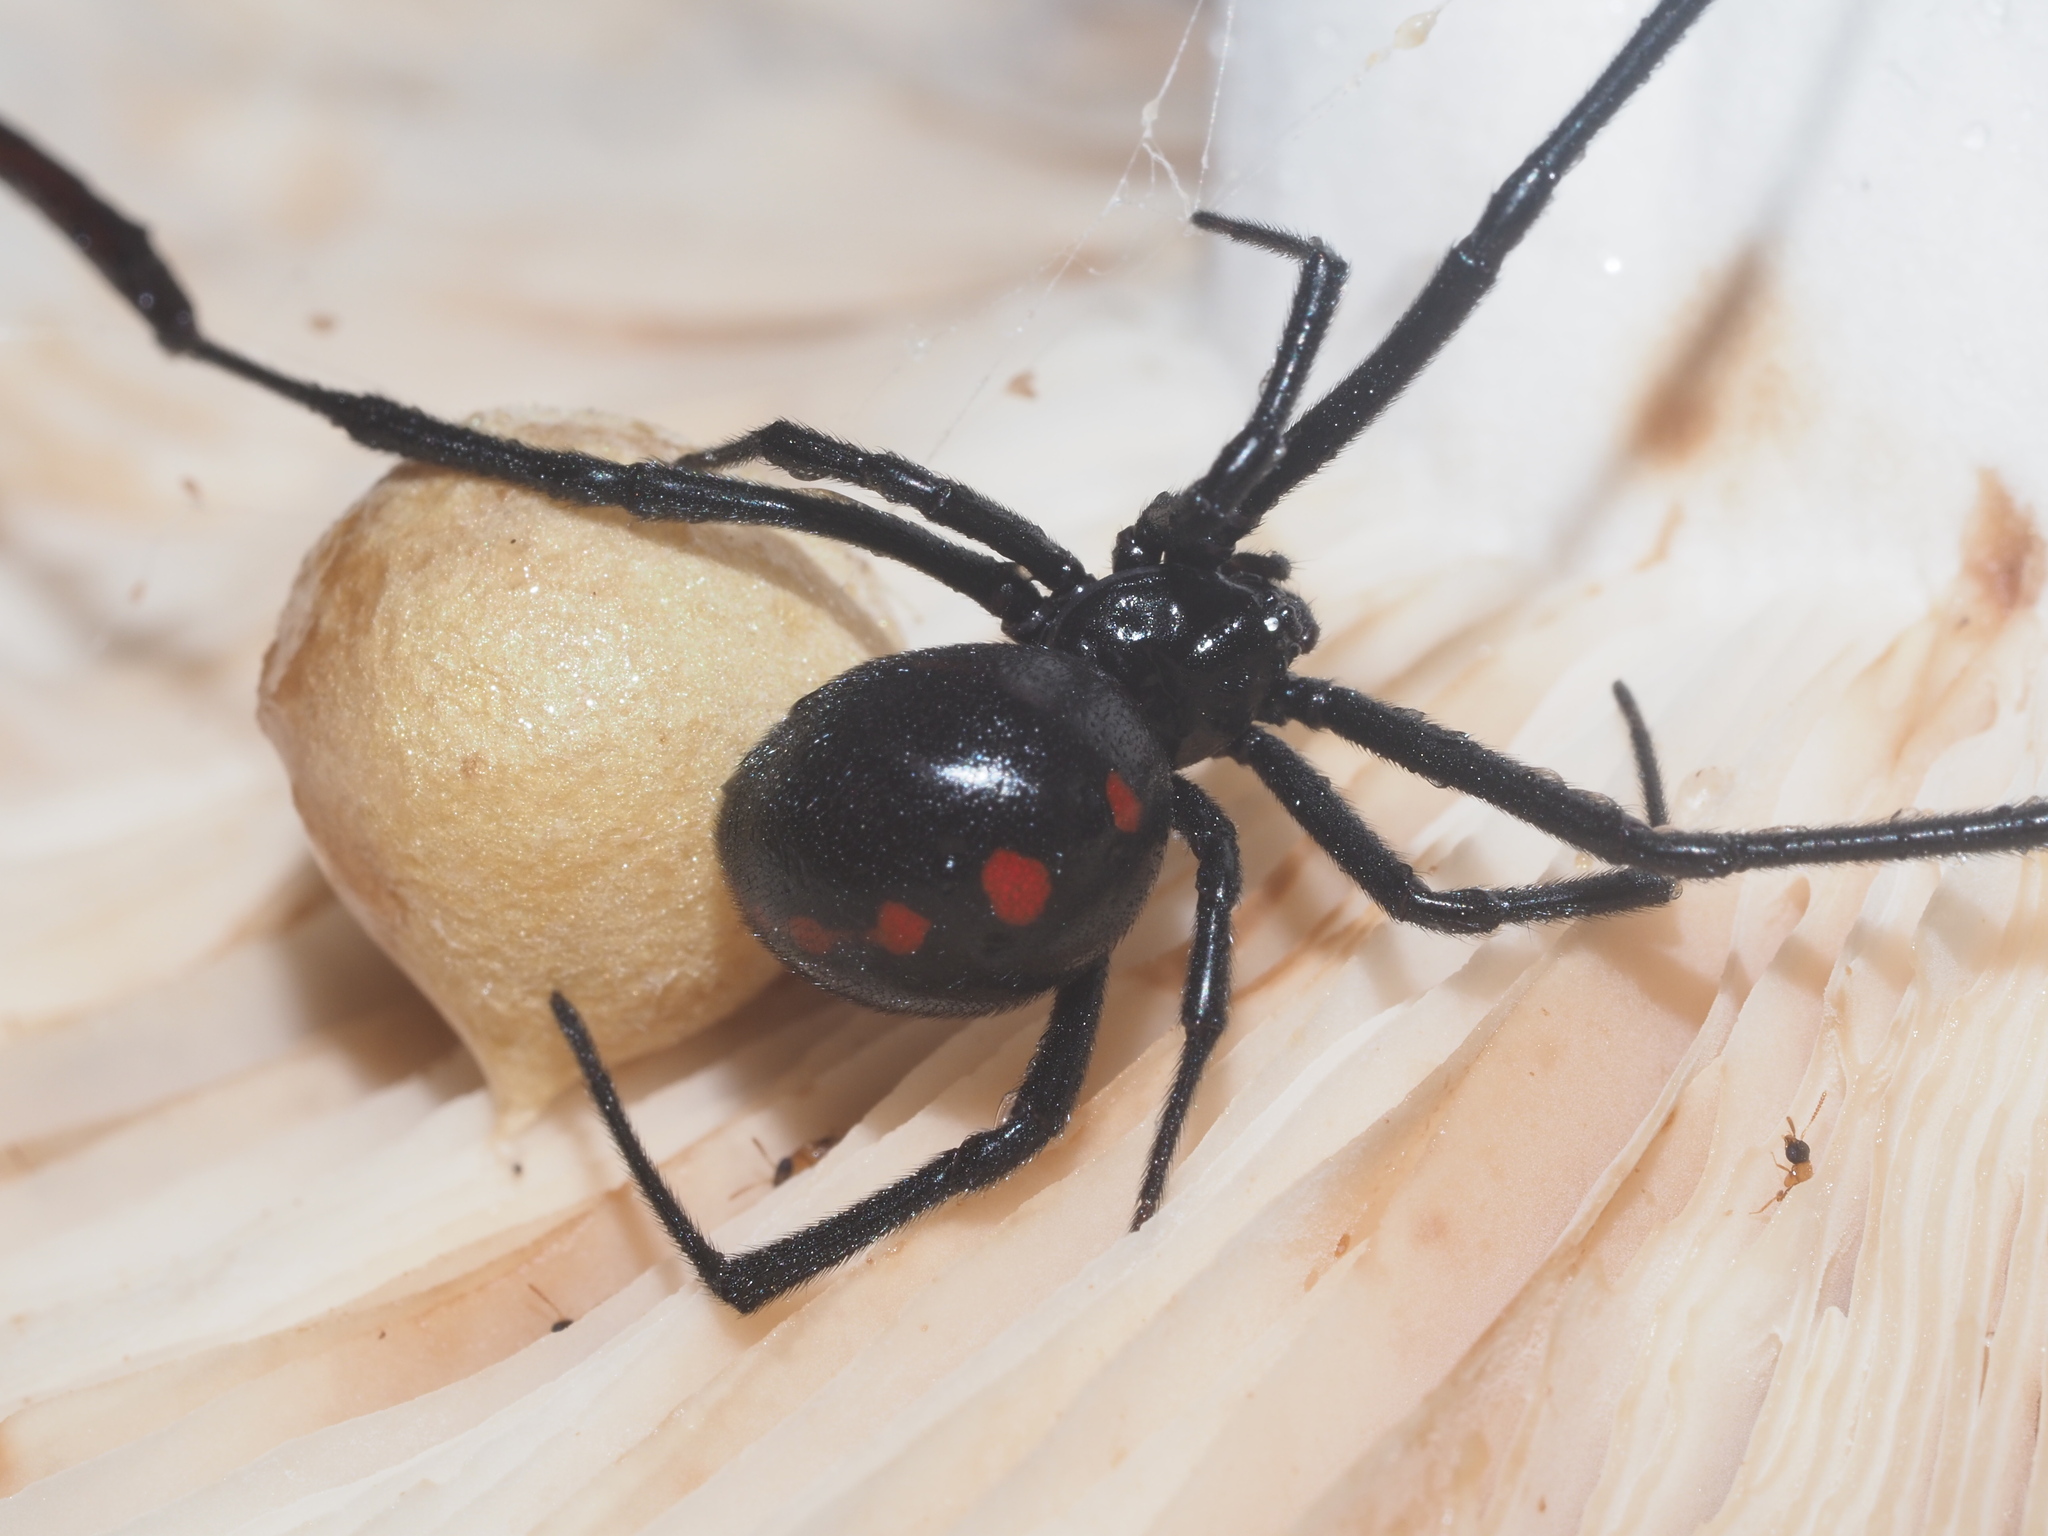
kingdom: Animalia
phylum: Arthropoda
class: Arachnida
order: Araneae
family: Theridiidae
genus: Latrodectus
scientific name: Latrodectus variolus
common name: Northern black widow
